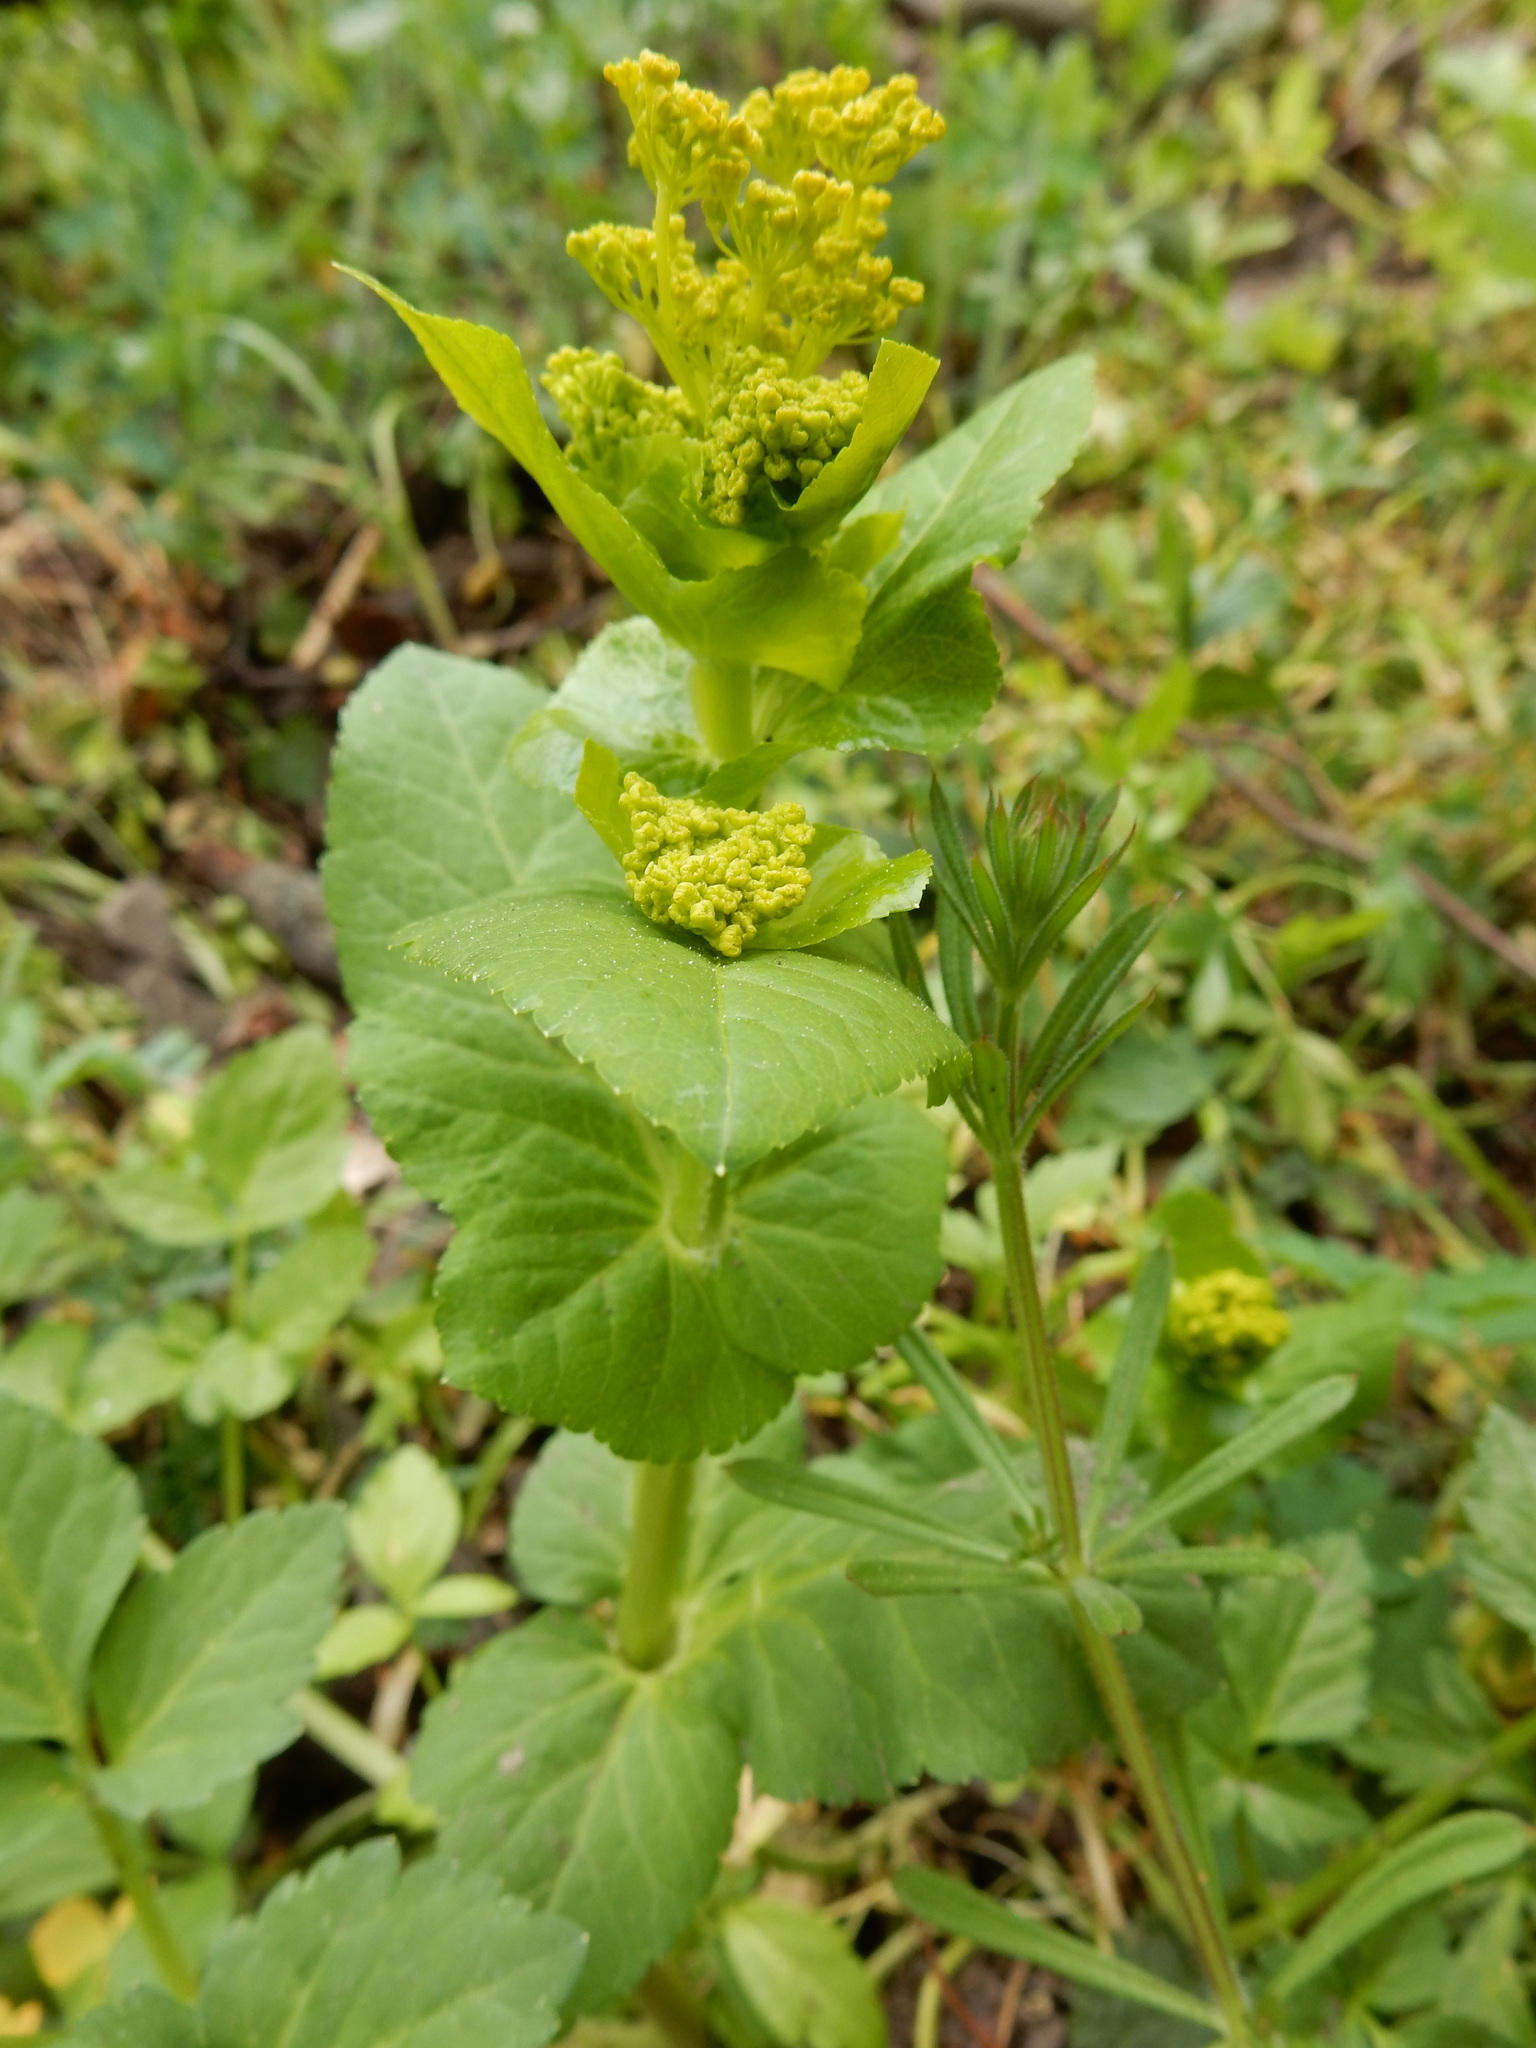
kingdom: Plantae
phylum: Tracheophyta
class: Magnoliopsida
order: Apiales
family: Apiaceae
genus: Smyrnium
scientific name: Smyrnium perfoliatum
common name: Perfoliate alexanders
